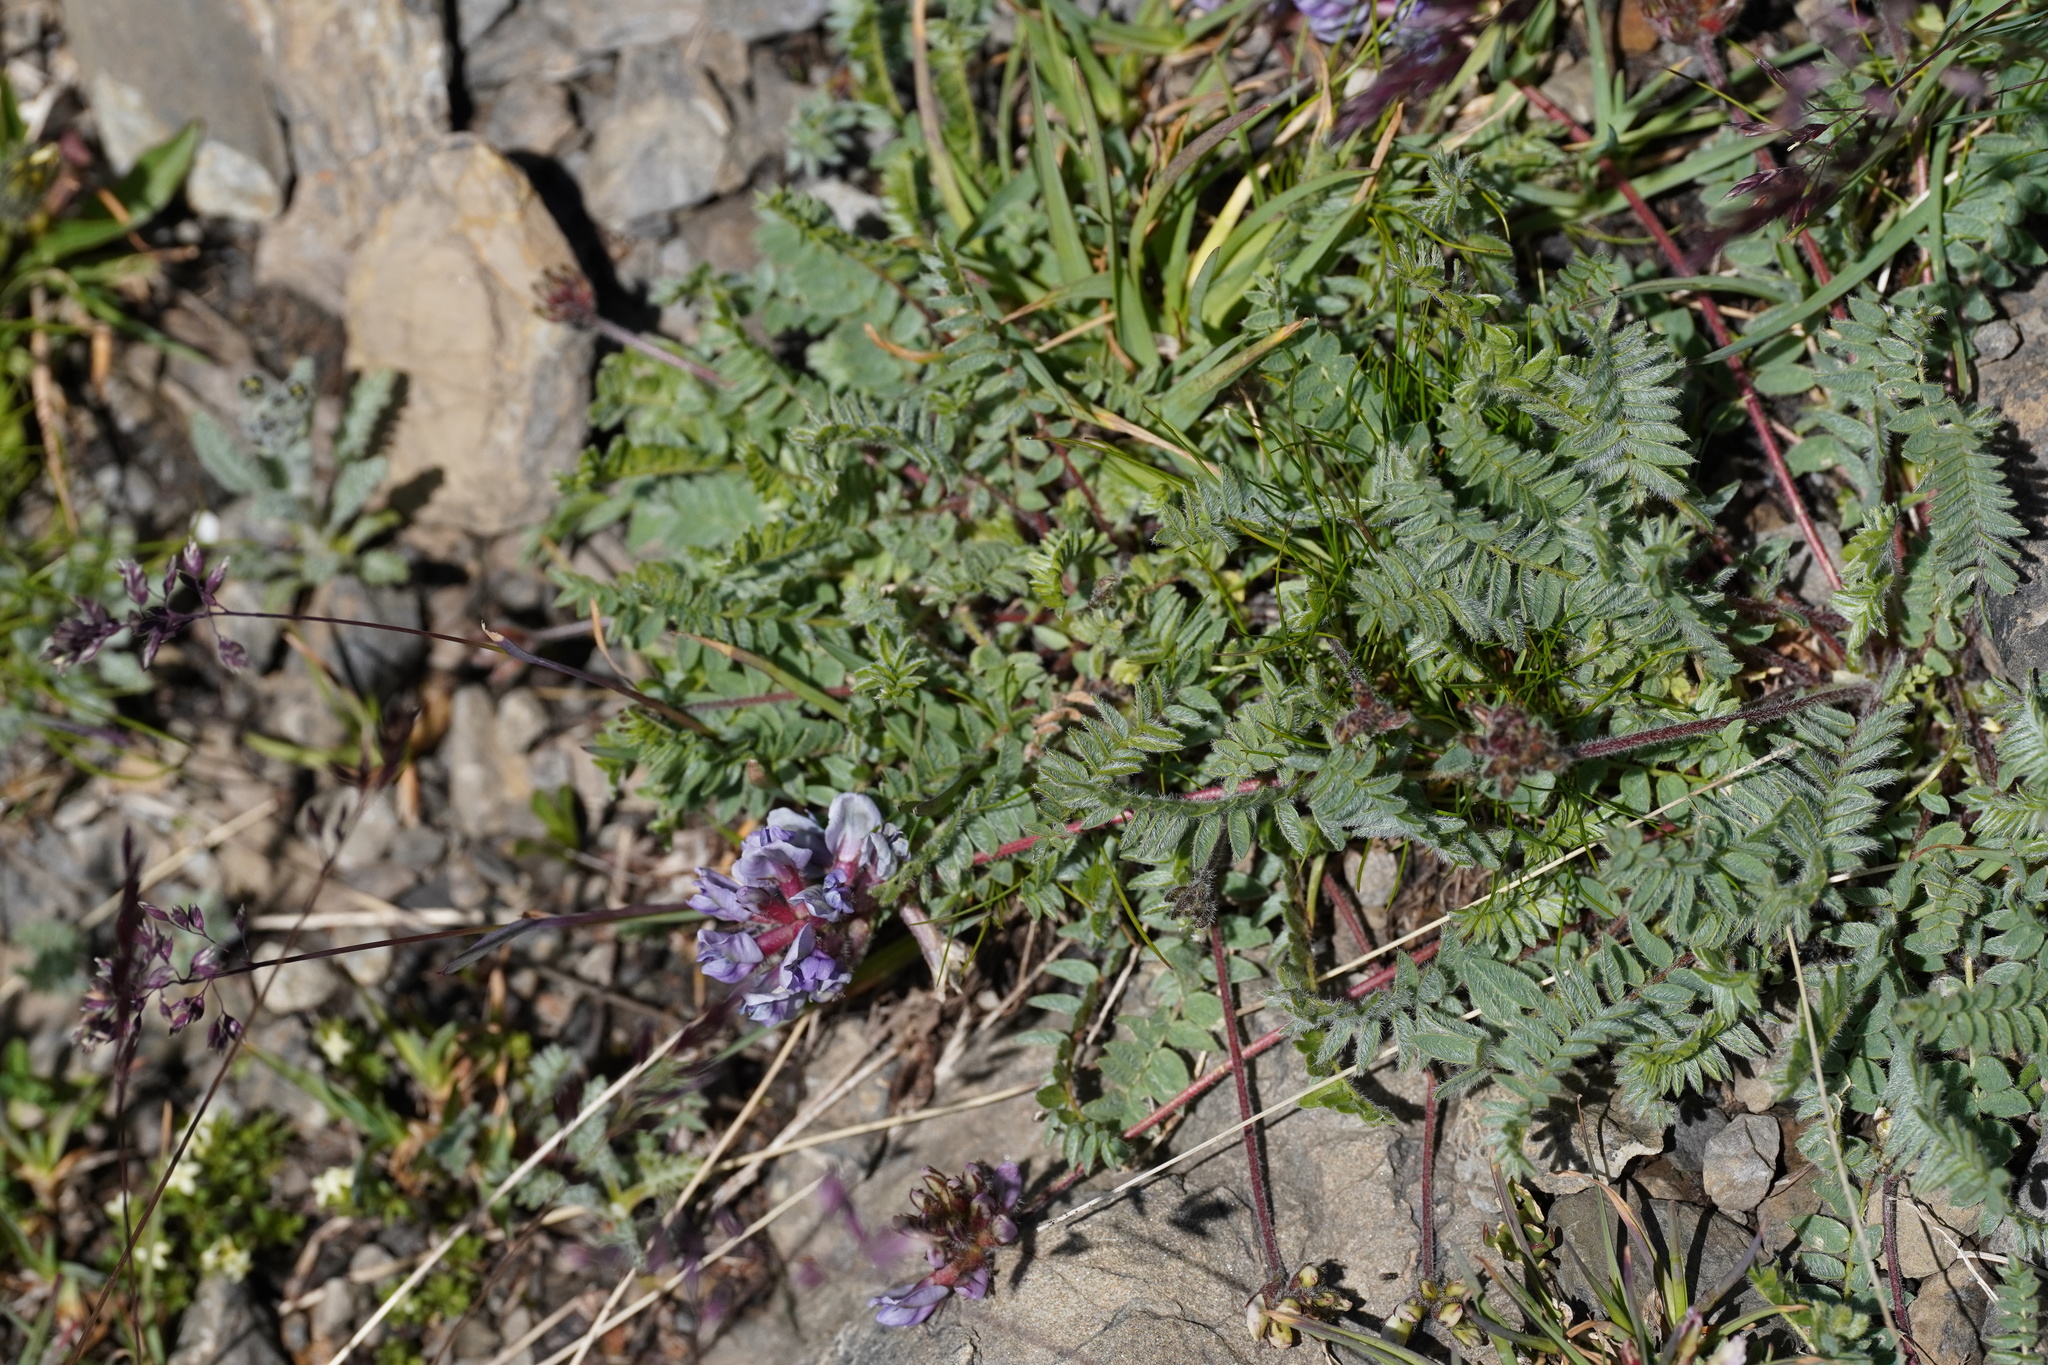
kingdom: Plantae
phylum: Tracheophyta
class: Magnoliopsida
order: Fabales
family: Fabaceae
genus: Oxytropis
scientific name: Oxytropis helvetica
